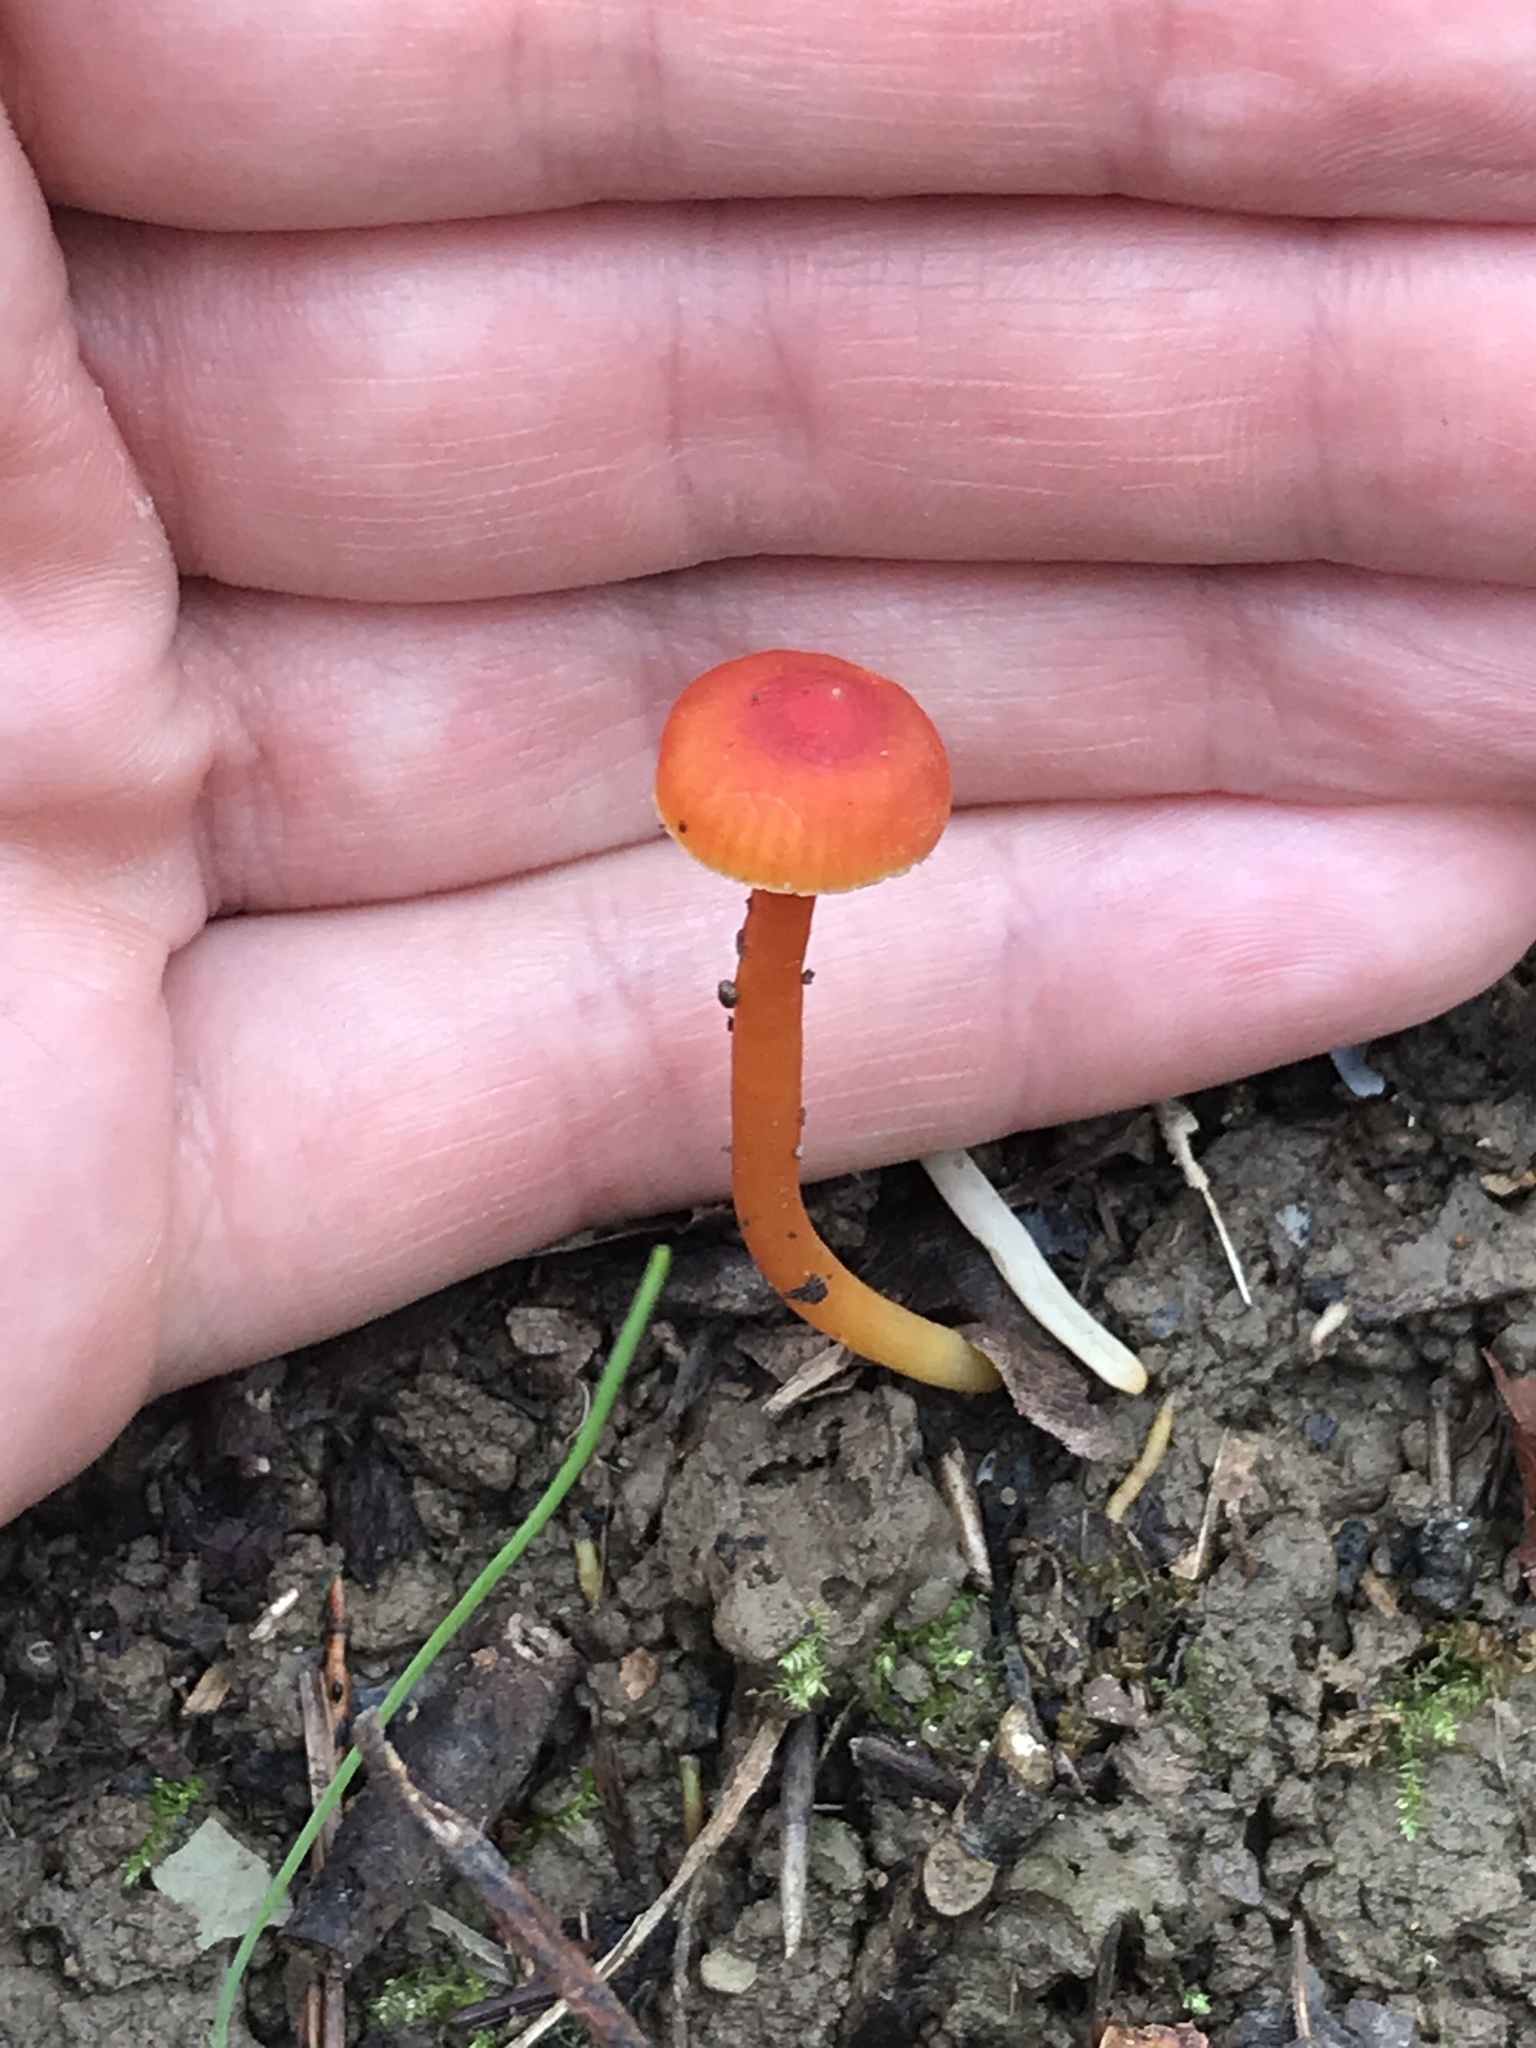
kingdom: Fungi
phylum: Basidiomycota
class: Agaricomycetes
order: Agaricales
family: Hygrophoraceae
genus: Hygrocybe
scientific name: Hygrocybe cantharellus
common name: Goblet waxcap
